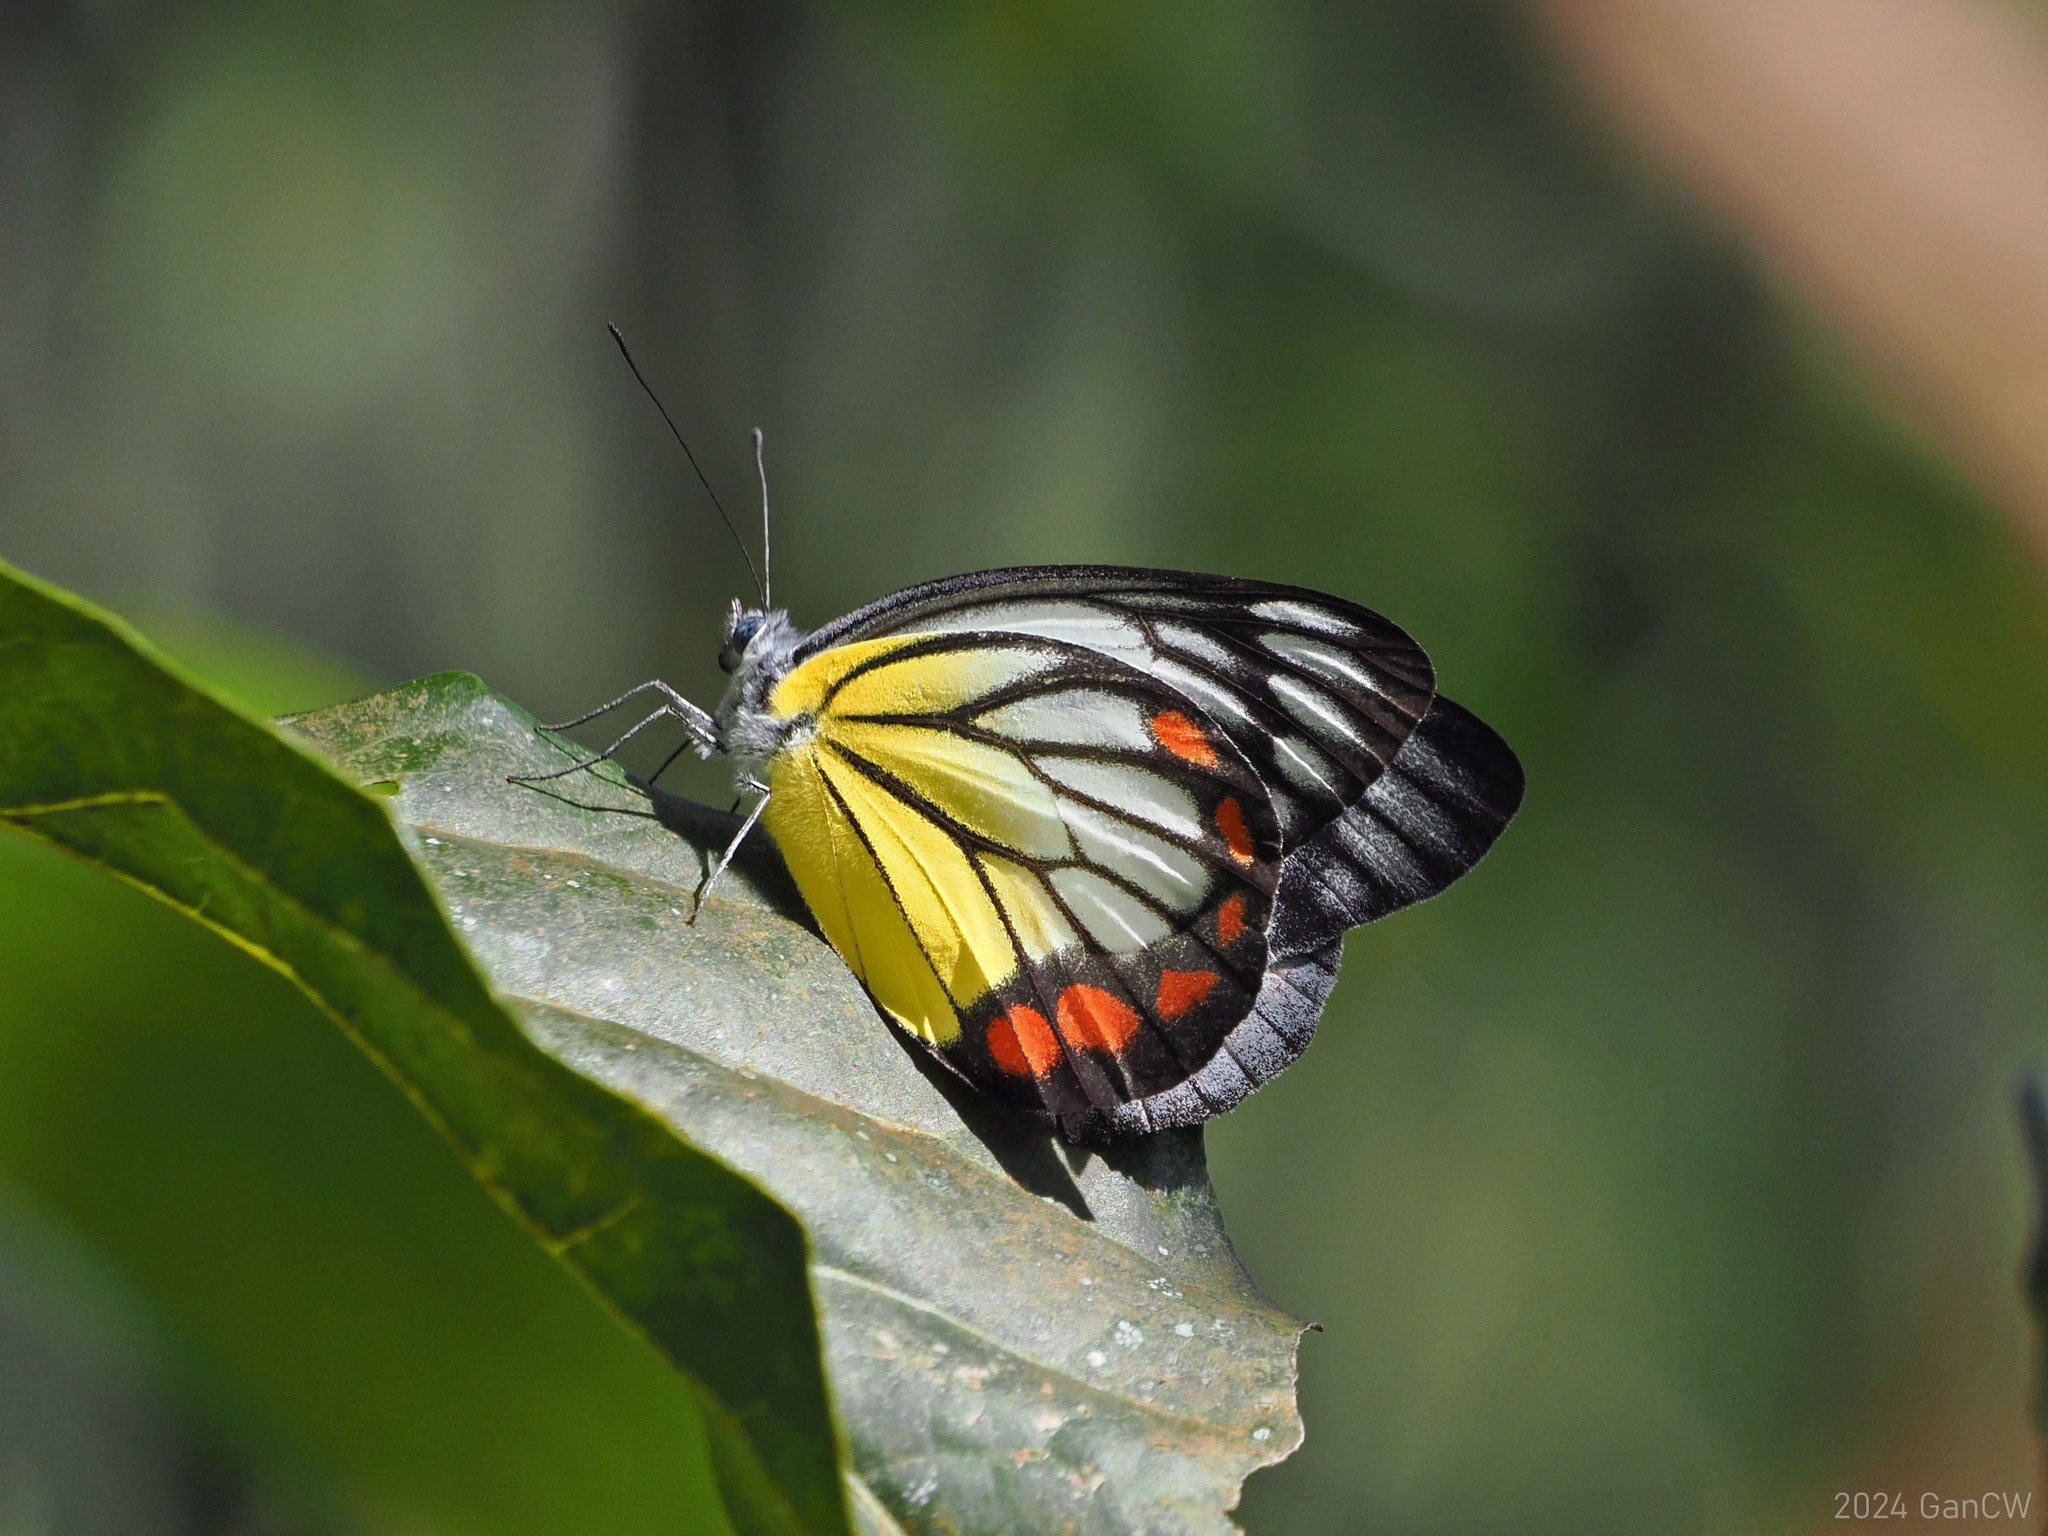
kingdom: Animalia
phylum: Arthropoda
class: Insecta
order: Lepidoptera
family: Pieridae
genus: Delias
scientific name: Delias hyparete
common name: Painted jezebel
